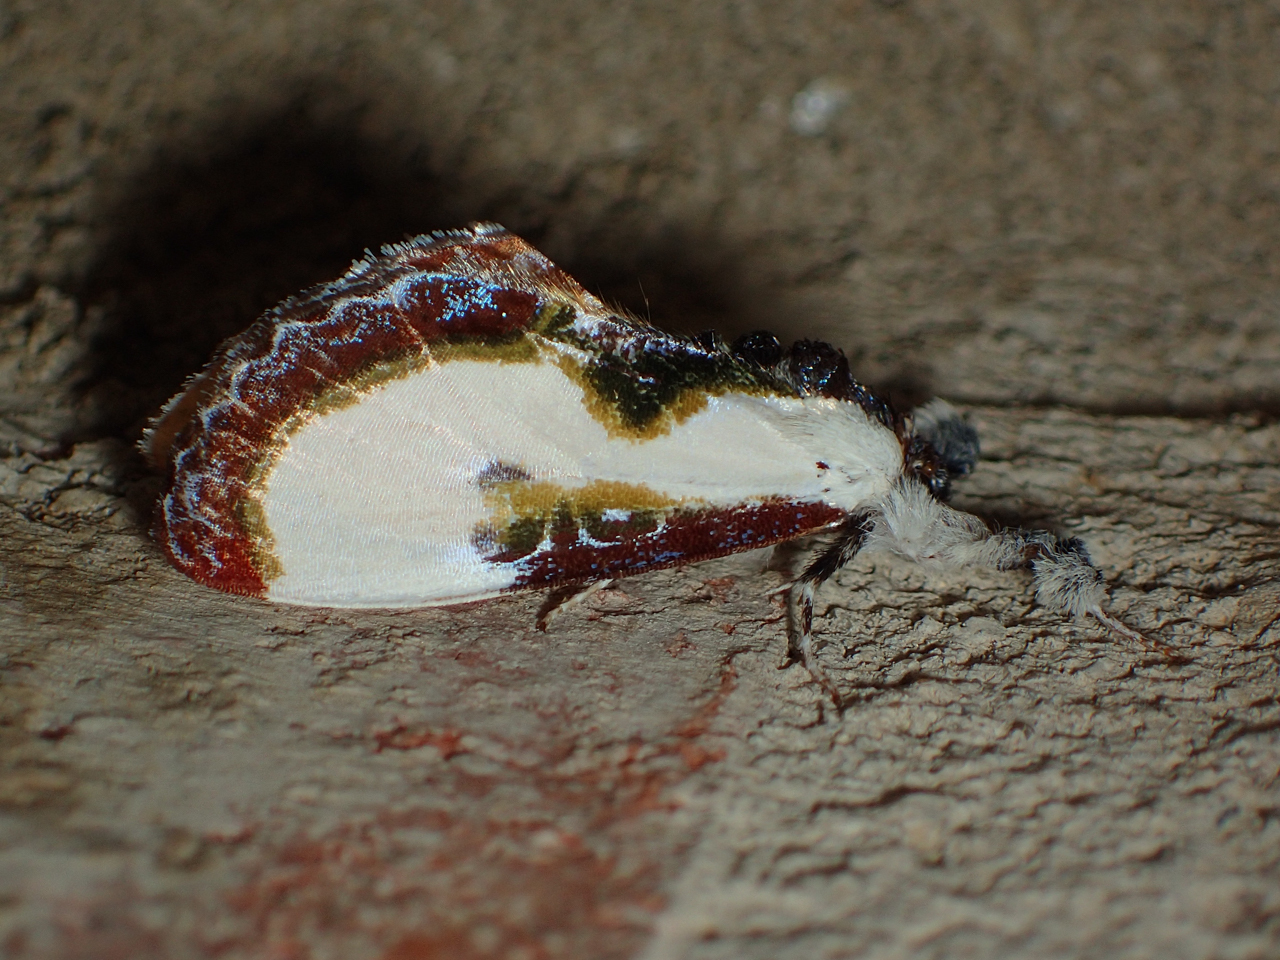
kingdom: Animalia
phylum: Arthropoda
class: Insecta
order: Lepidoptera
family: Noctuidae
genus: Eudryas
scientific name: Eudryas grata
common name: Beautiful wood-nymph
